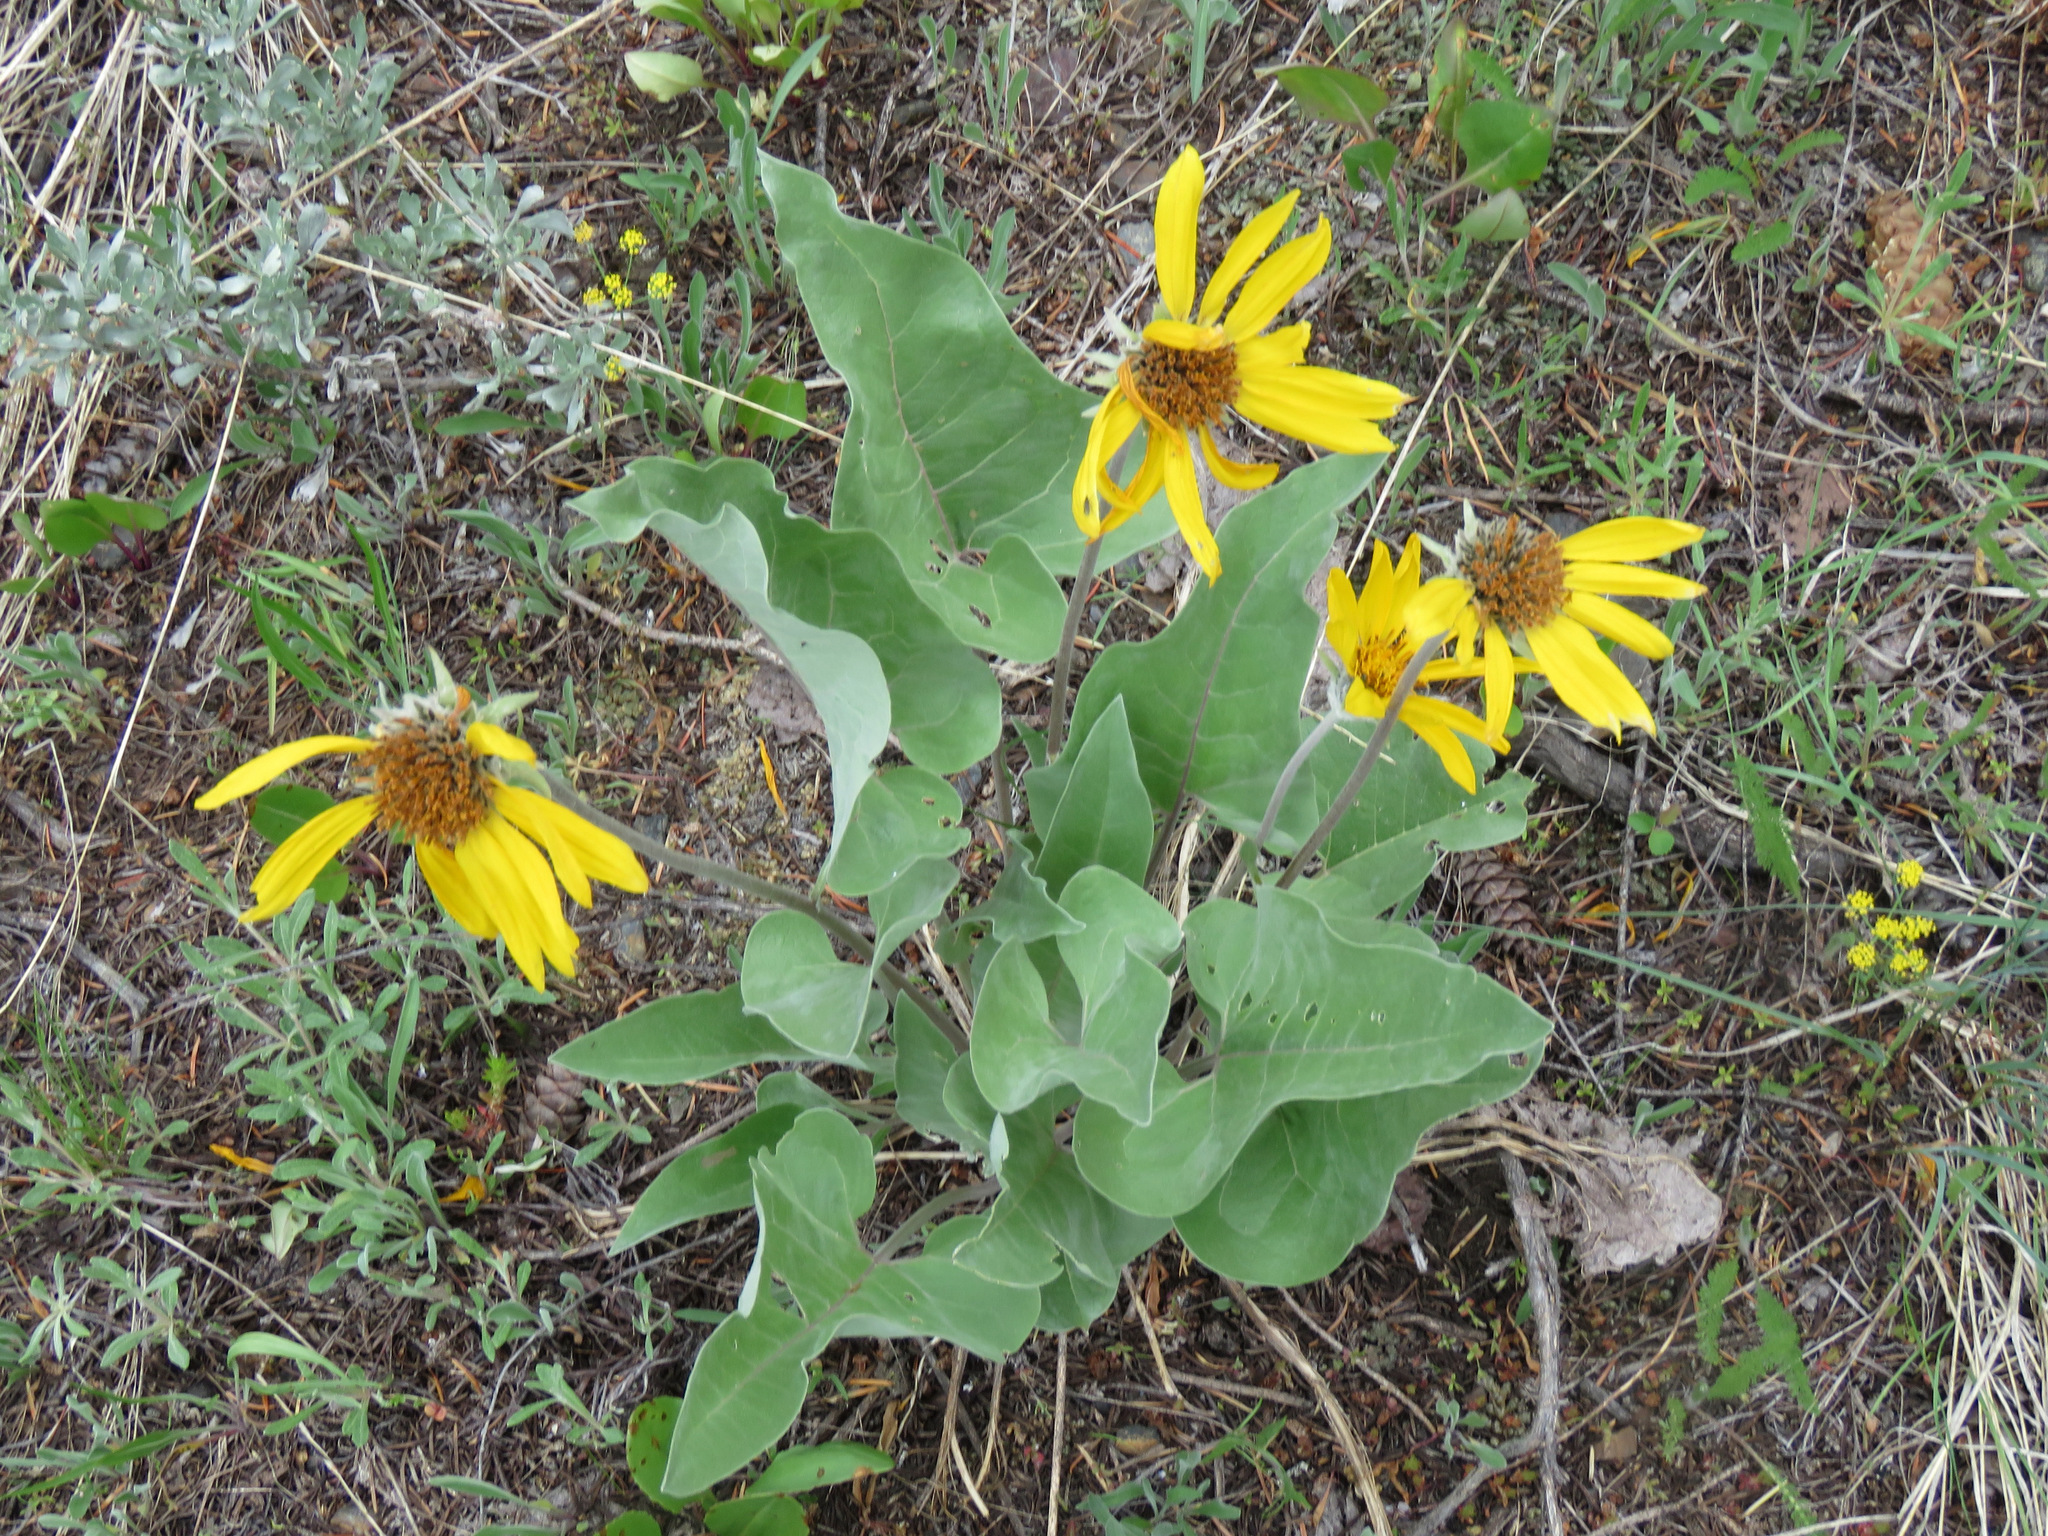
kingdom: Plantae
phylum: Tracheophyta
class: Magnoliopsida
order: Asterales
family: Asteraceae
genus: Wyethia
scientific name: Wyethia sagittata
